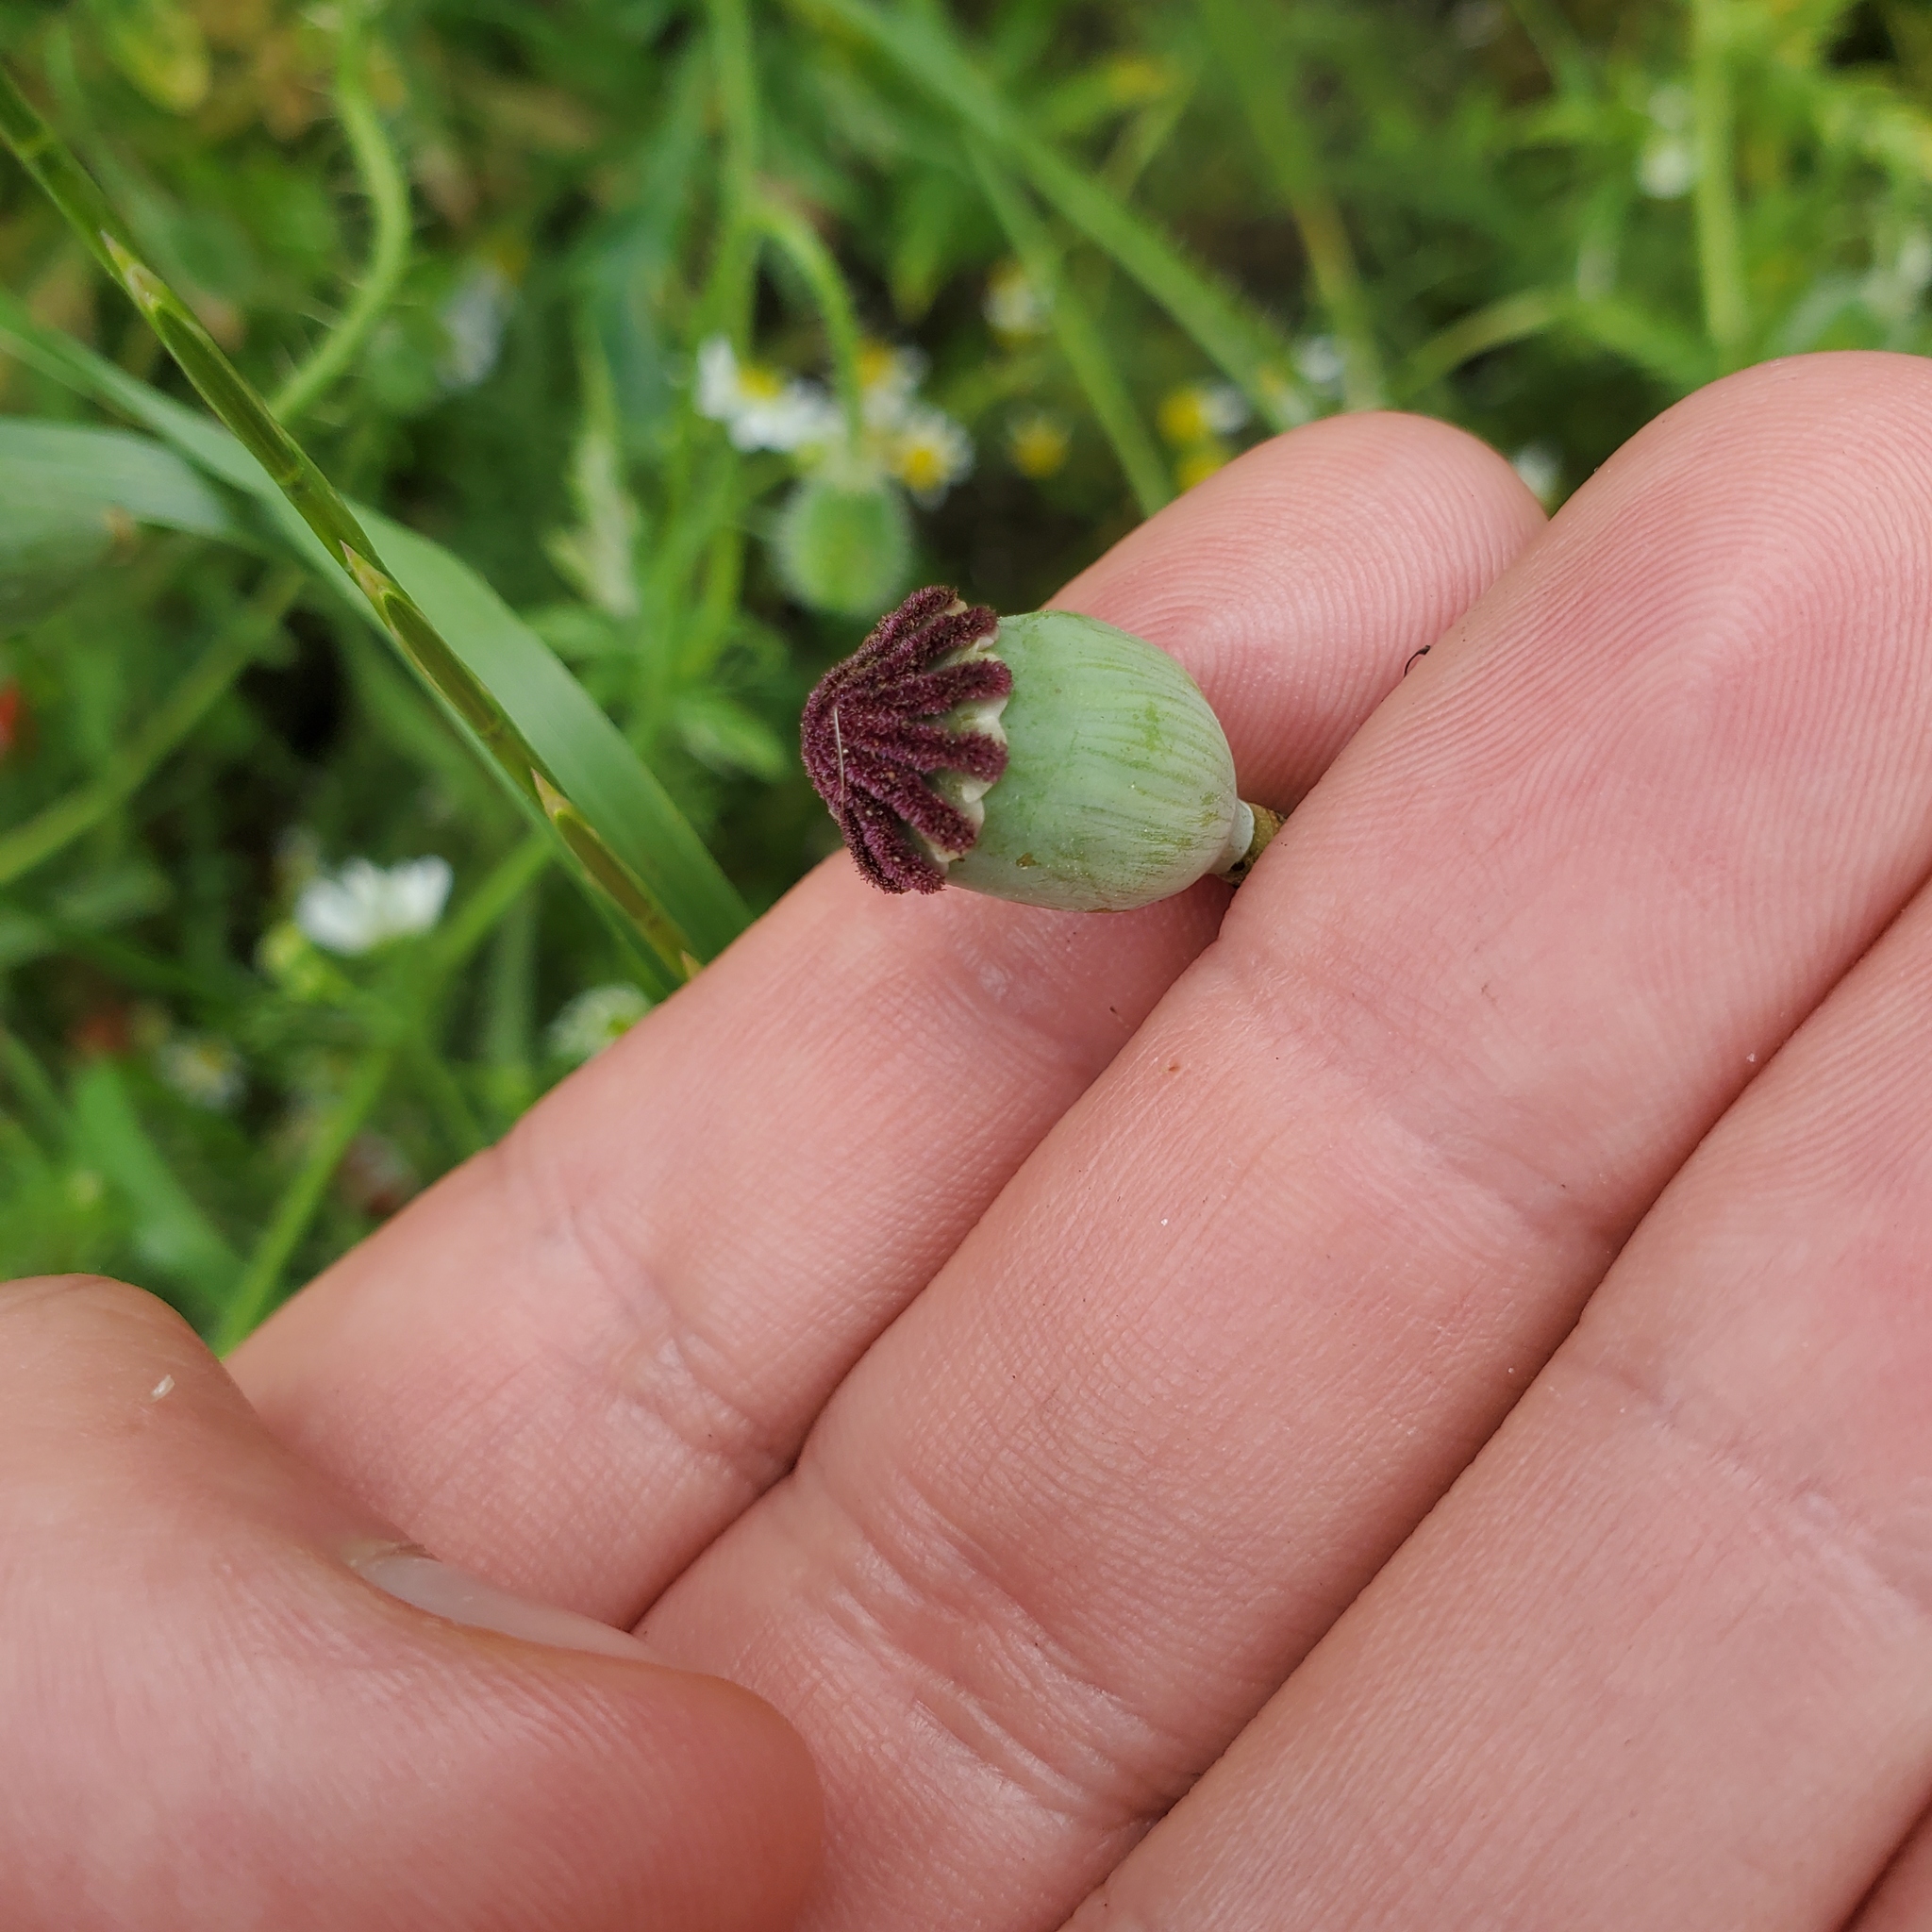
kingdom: Plantae
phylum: Tracheophyta
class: Magnoliopsida
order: Ranunculales
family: Papaveraceae
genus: Papaver
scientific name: Papaver rhoeas
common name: Corn poppy
